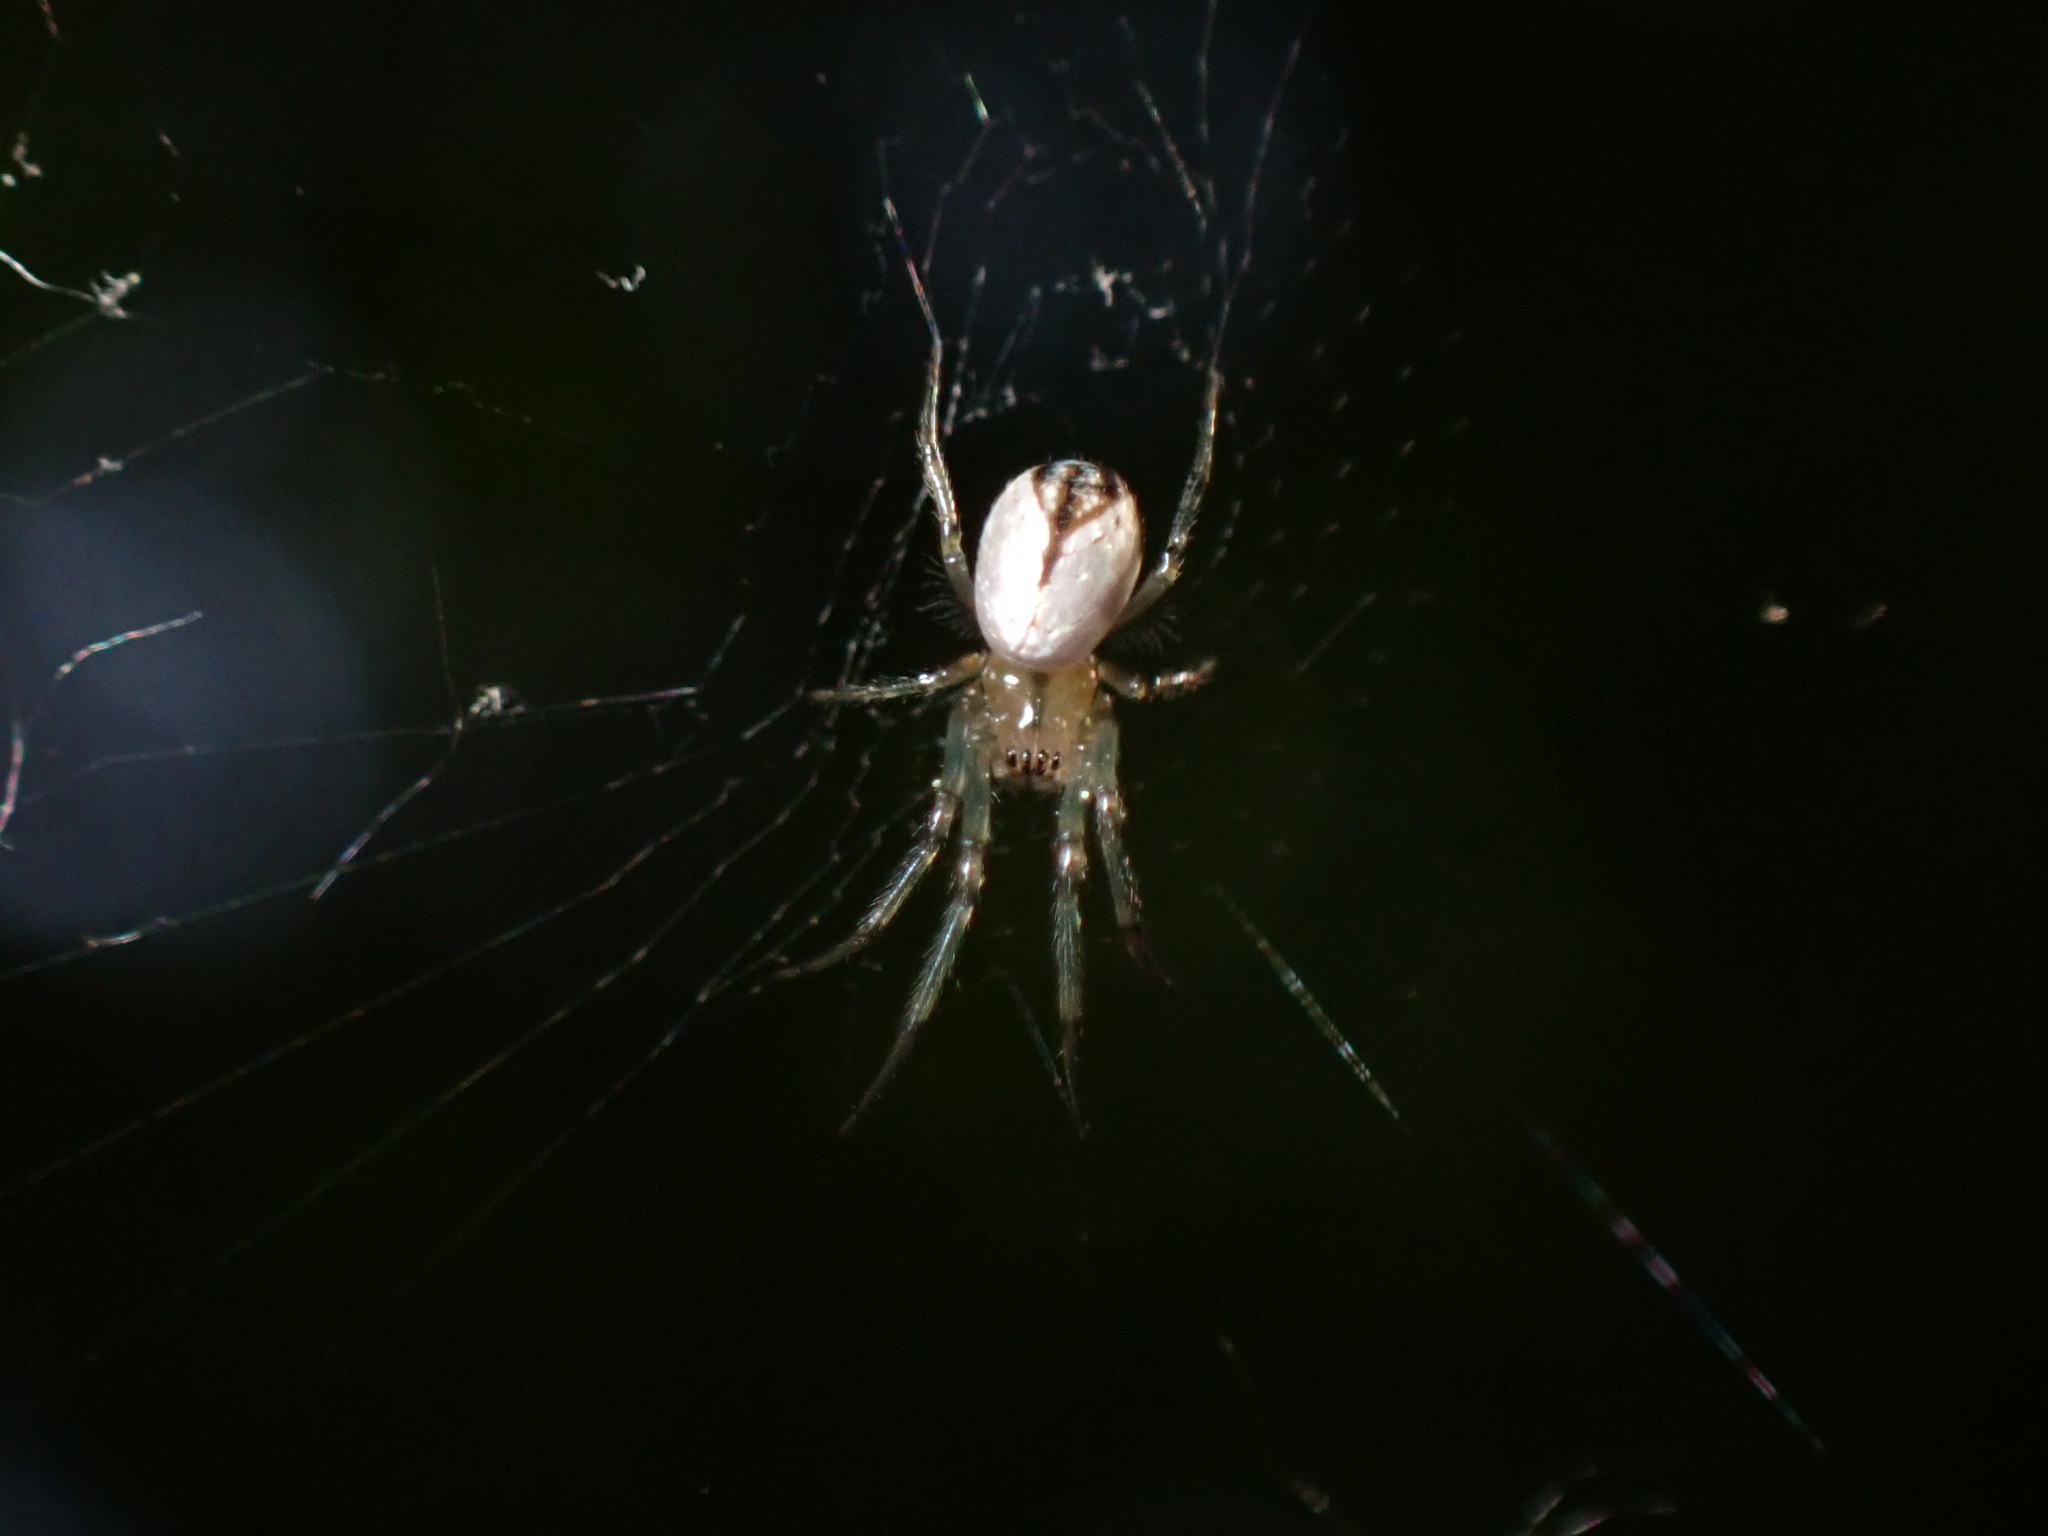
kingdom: Animalia
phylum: Arthropoda
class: Arachnida
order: Araneae
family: Tetragnathidae
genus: Leucauge
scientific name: Leucauge venusta
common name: Longjawed orb weavers
